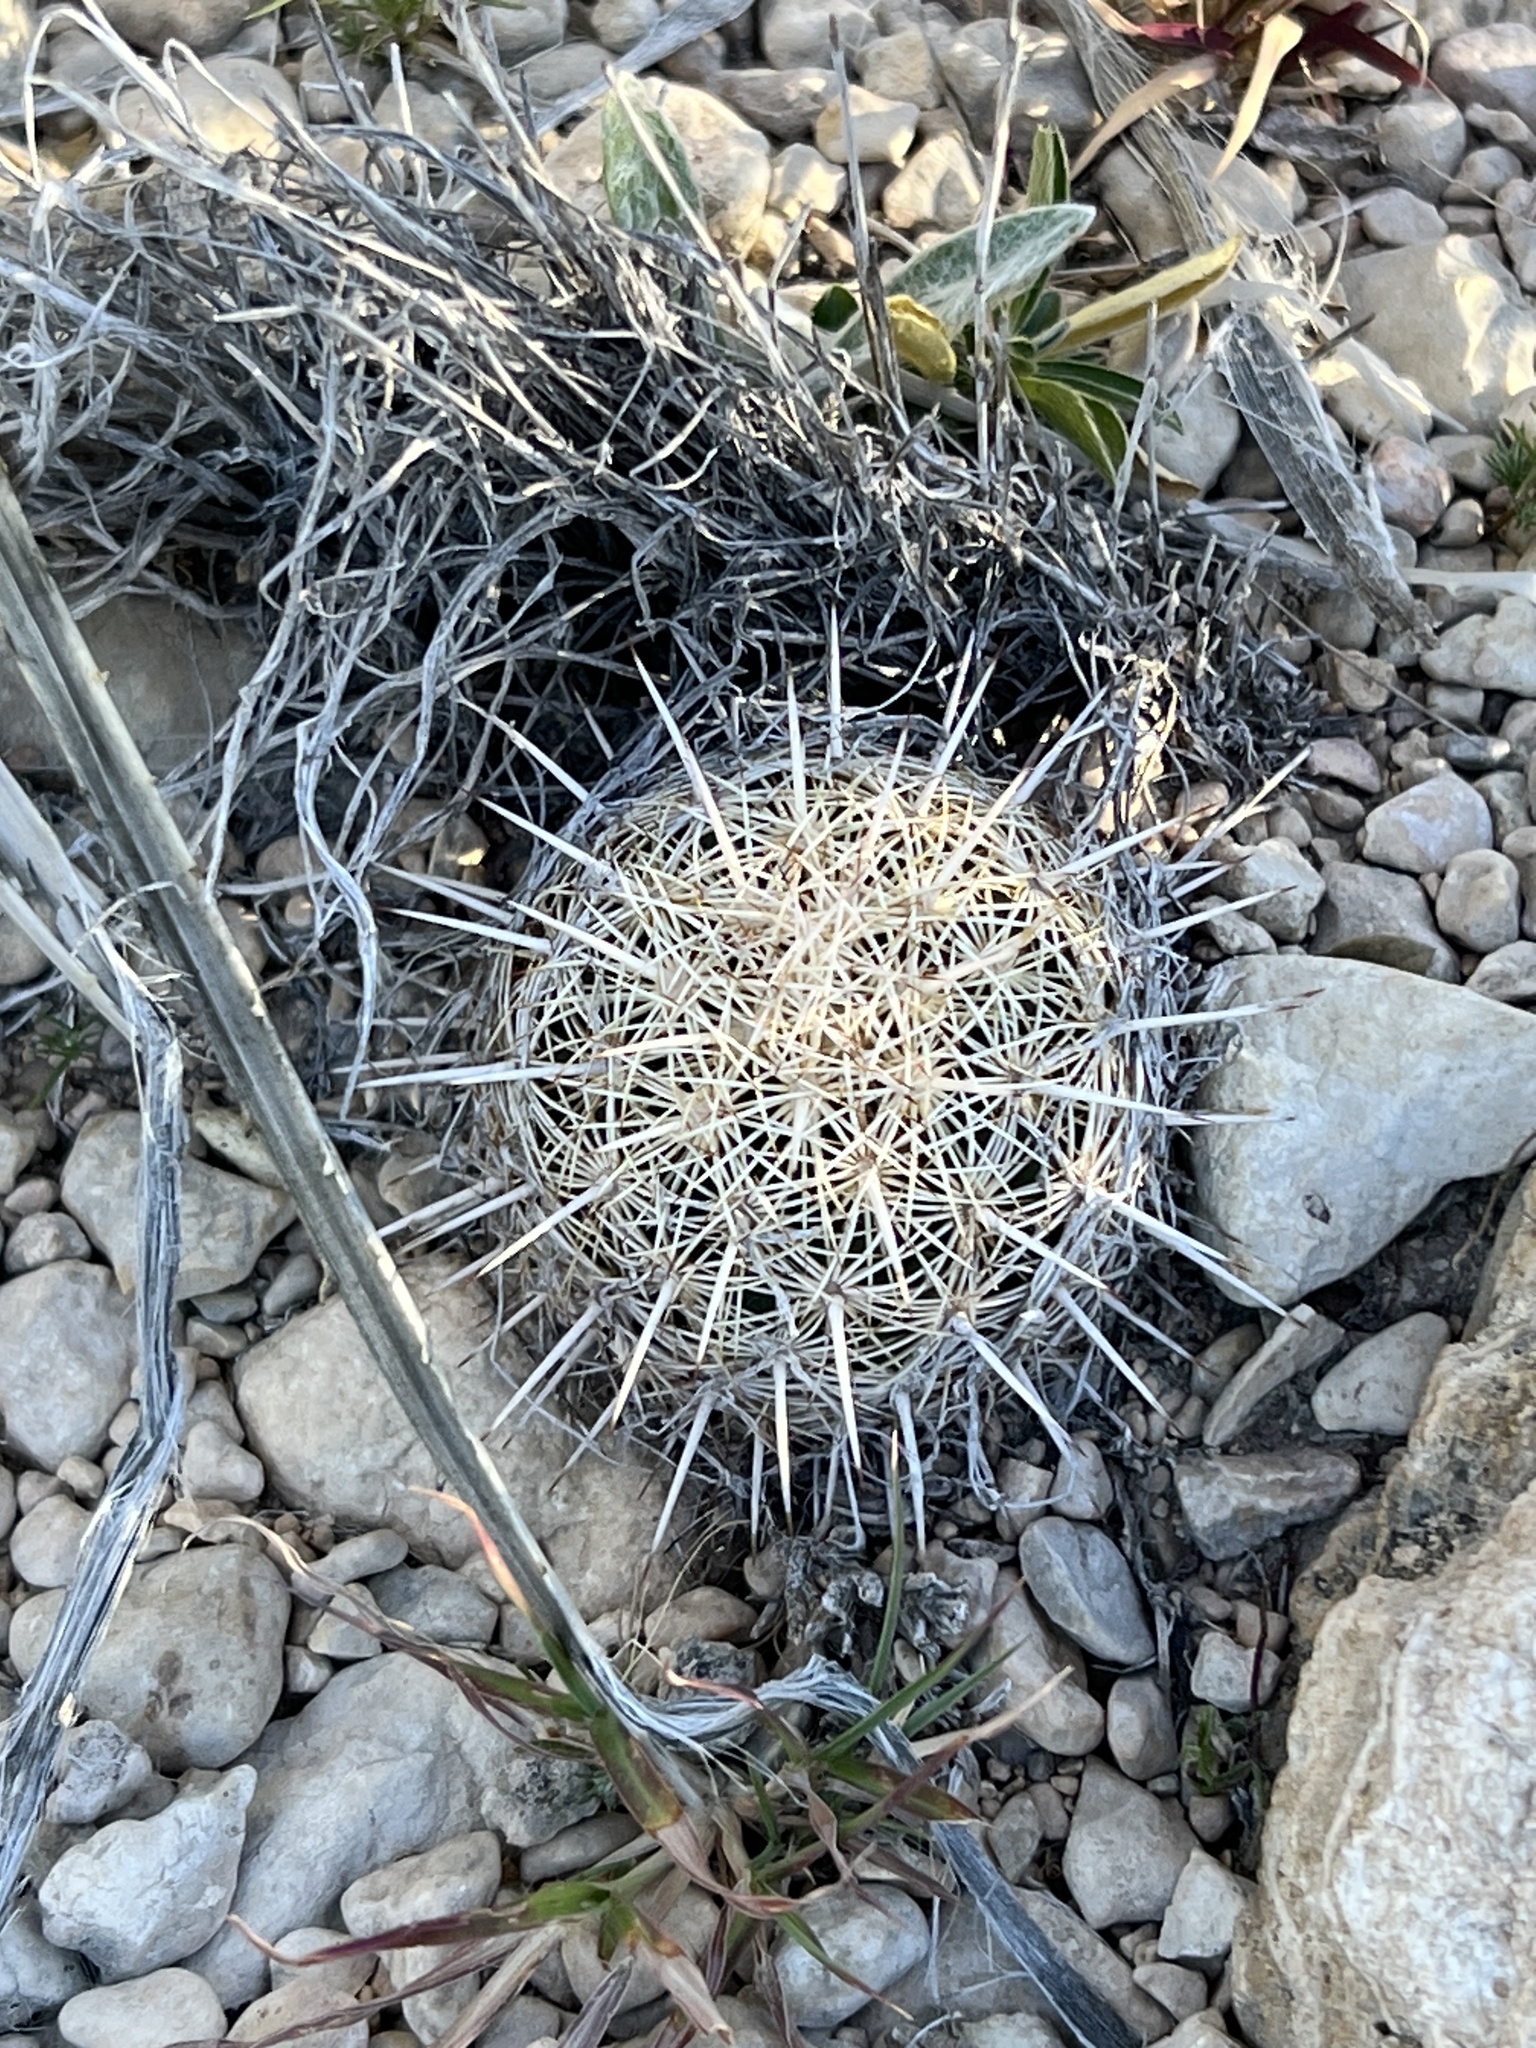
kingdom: Plantae
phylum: Tracheophyta
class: Magnoliopsida
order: Caryophyllales
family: Cactaceae
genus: Coryphantha
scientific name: Coryphantha echinus
